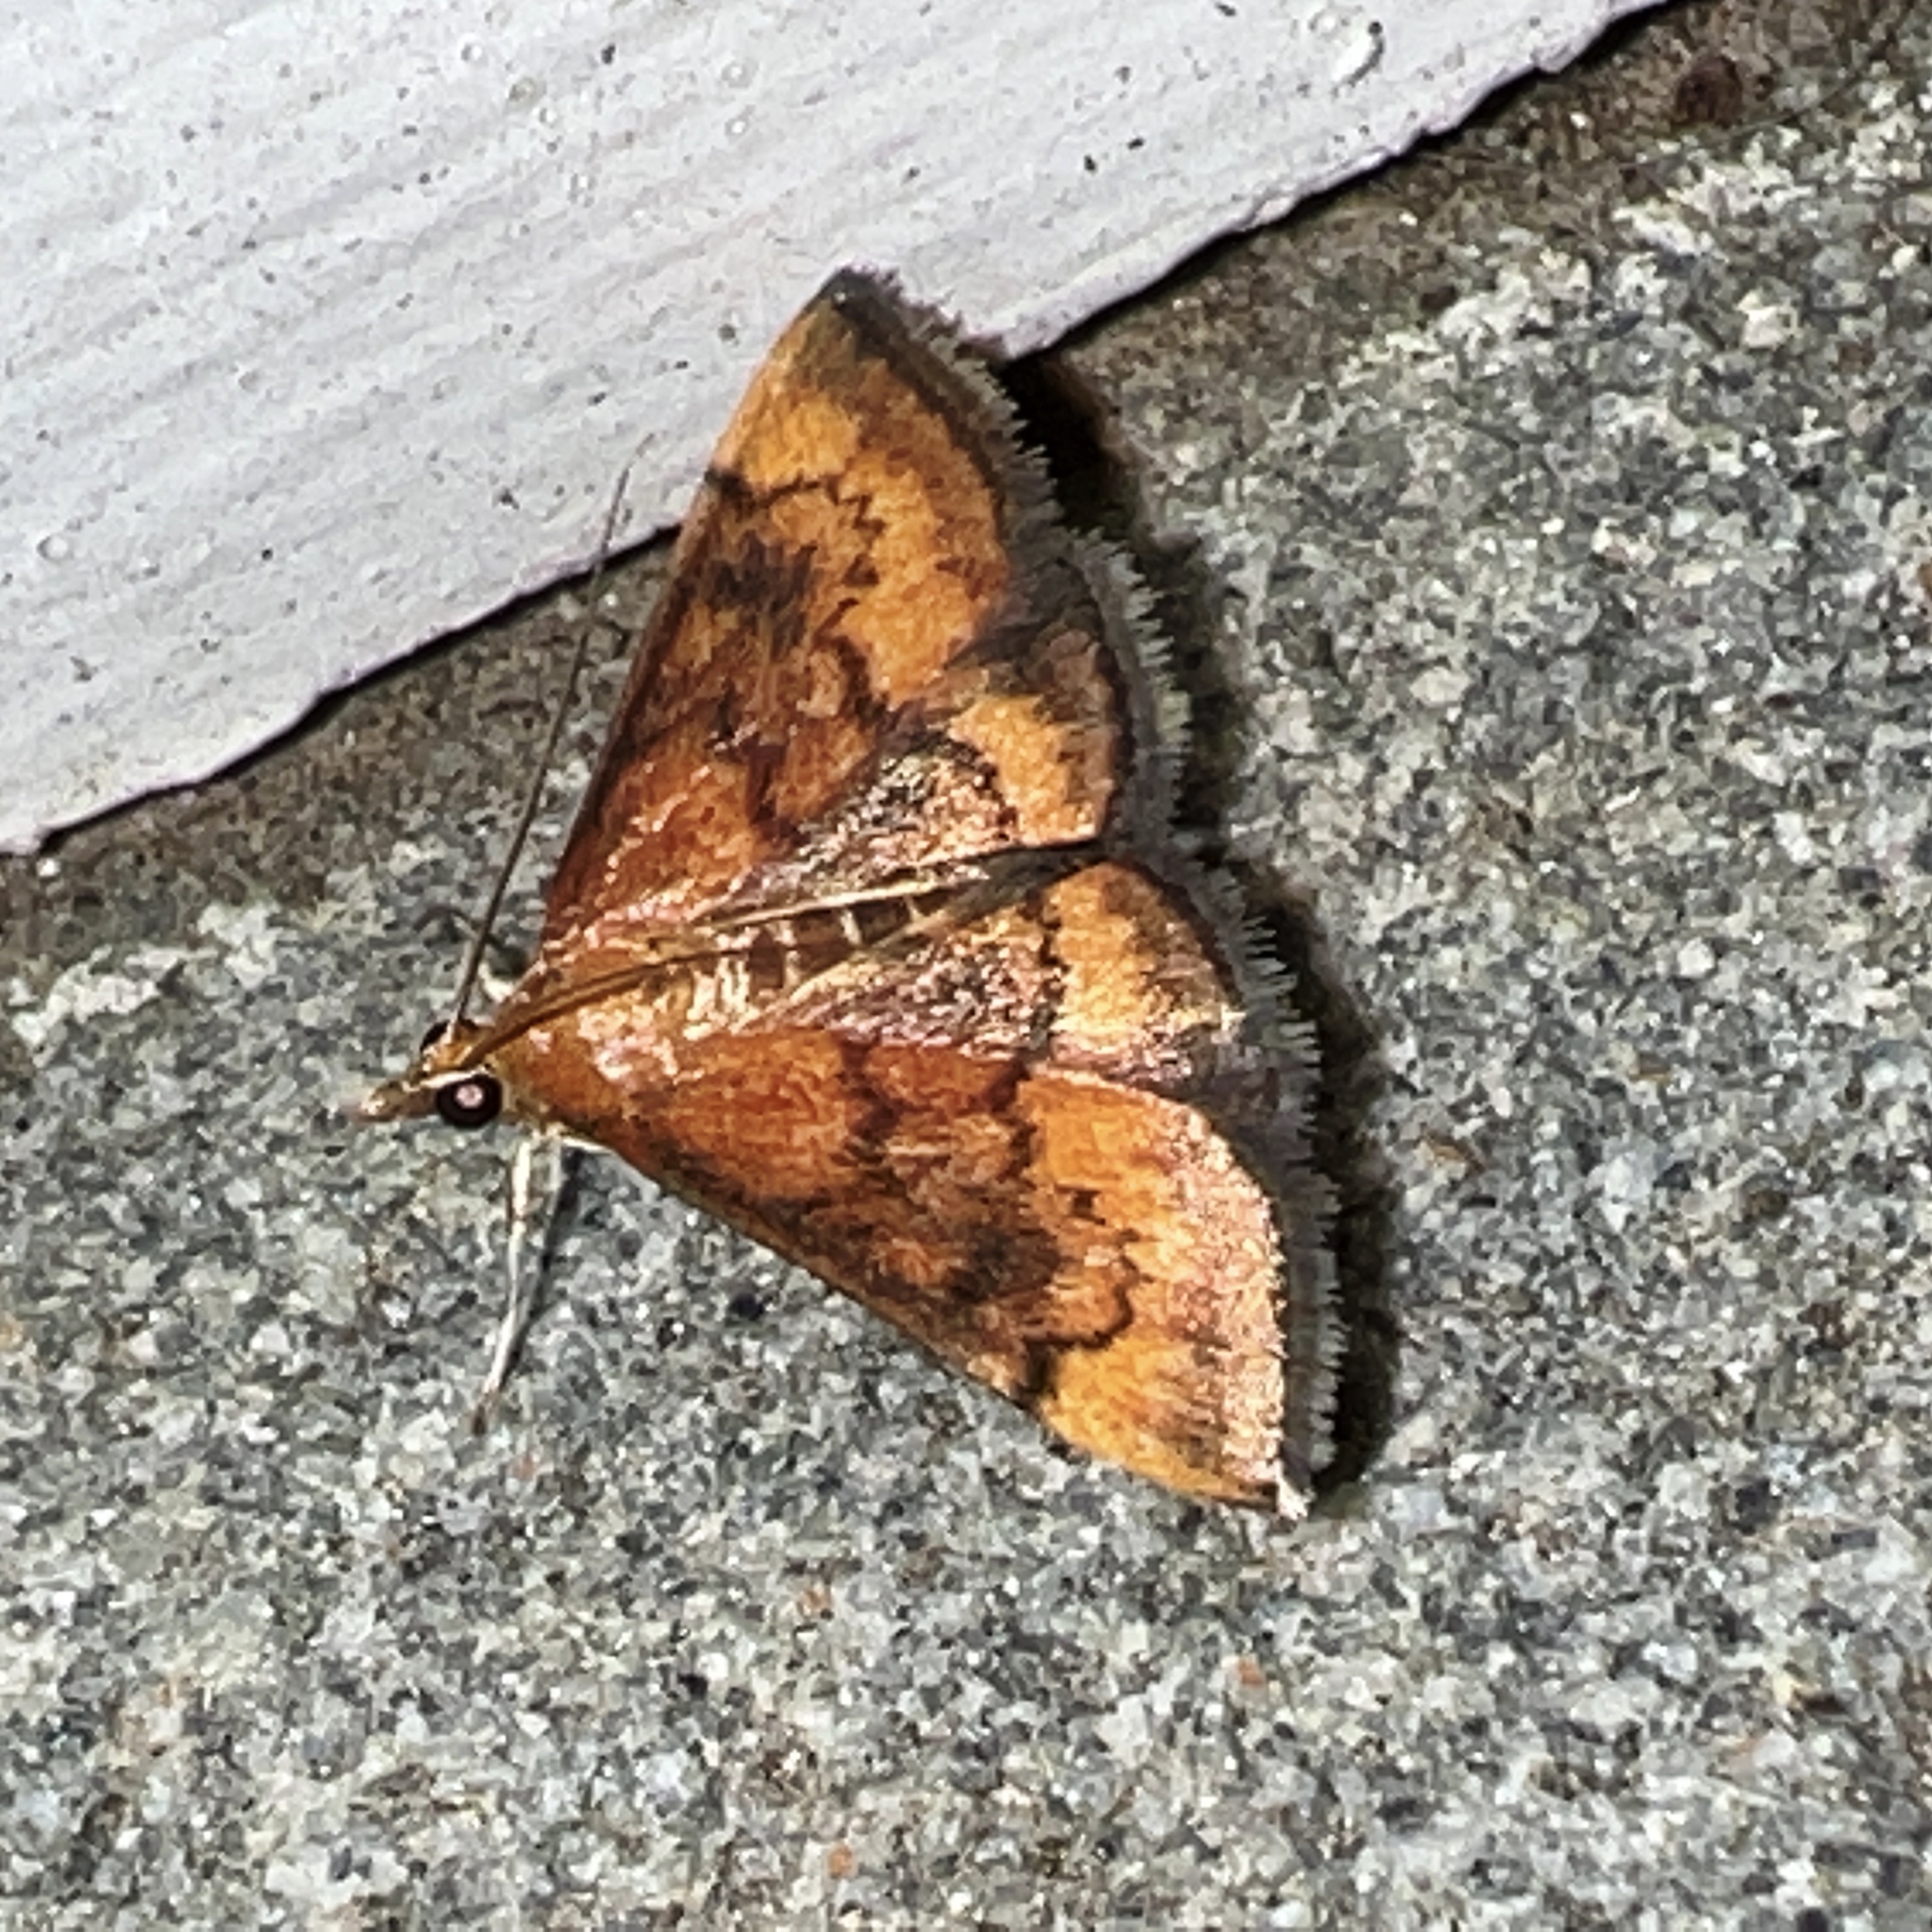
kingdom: Animalia
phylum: Arthropoda
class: Insecta
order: Lepidoptera
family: Crambidae
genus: Pyrausta
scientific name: Pyrausta rubricalis
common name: Variable reddish pyrausta
